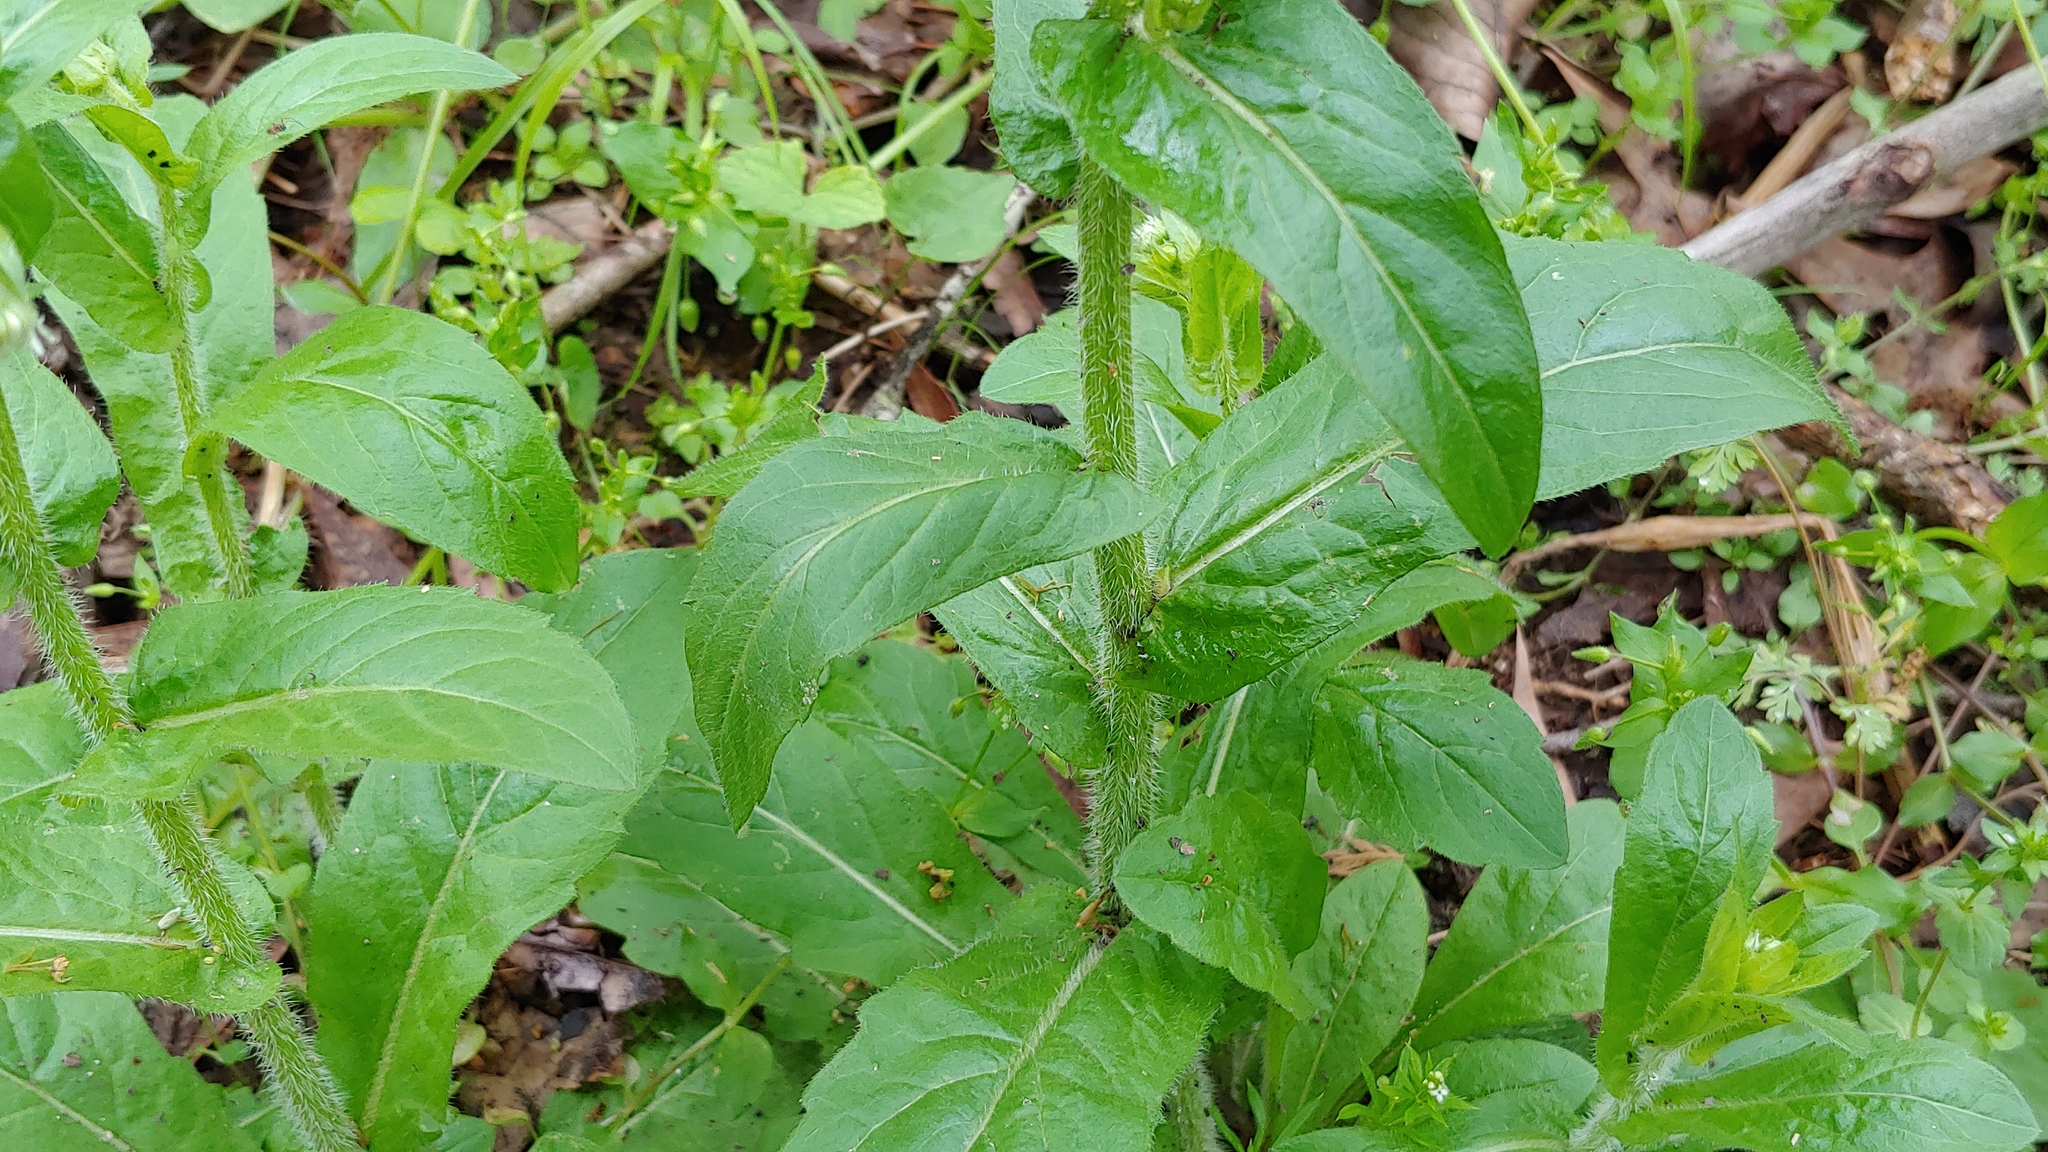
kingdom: Plantae
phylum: Tracheophyta
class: Magnoliopsida
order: Asterales
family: Asteraceae
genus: Erigeron
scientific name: Erigeron philadelphicus
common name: Robin's-plantain
